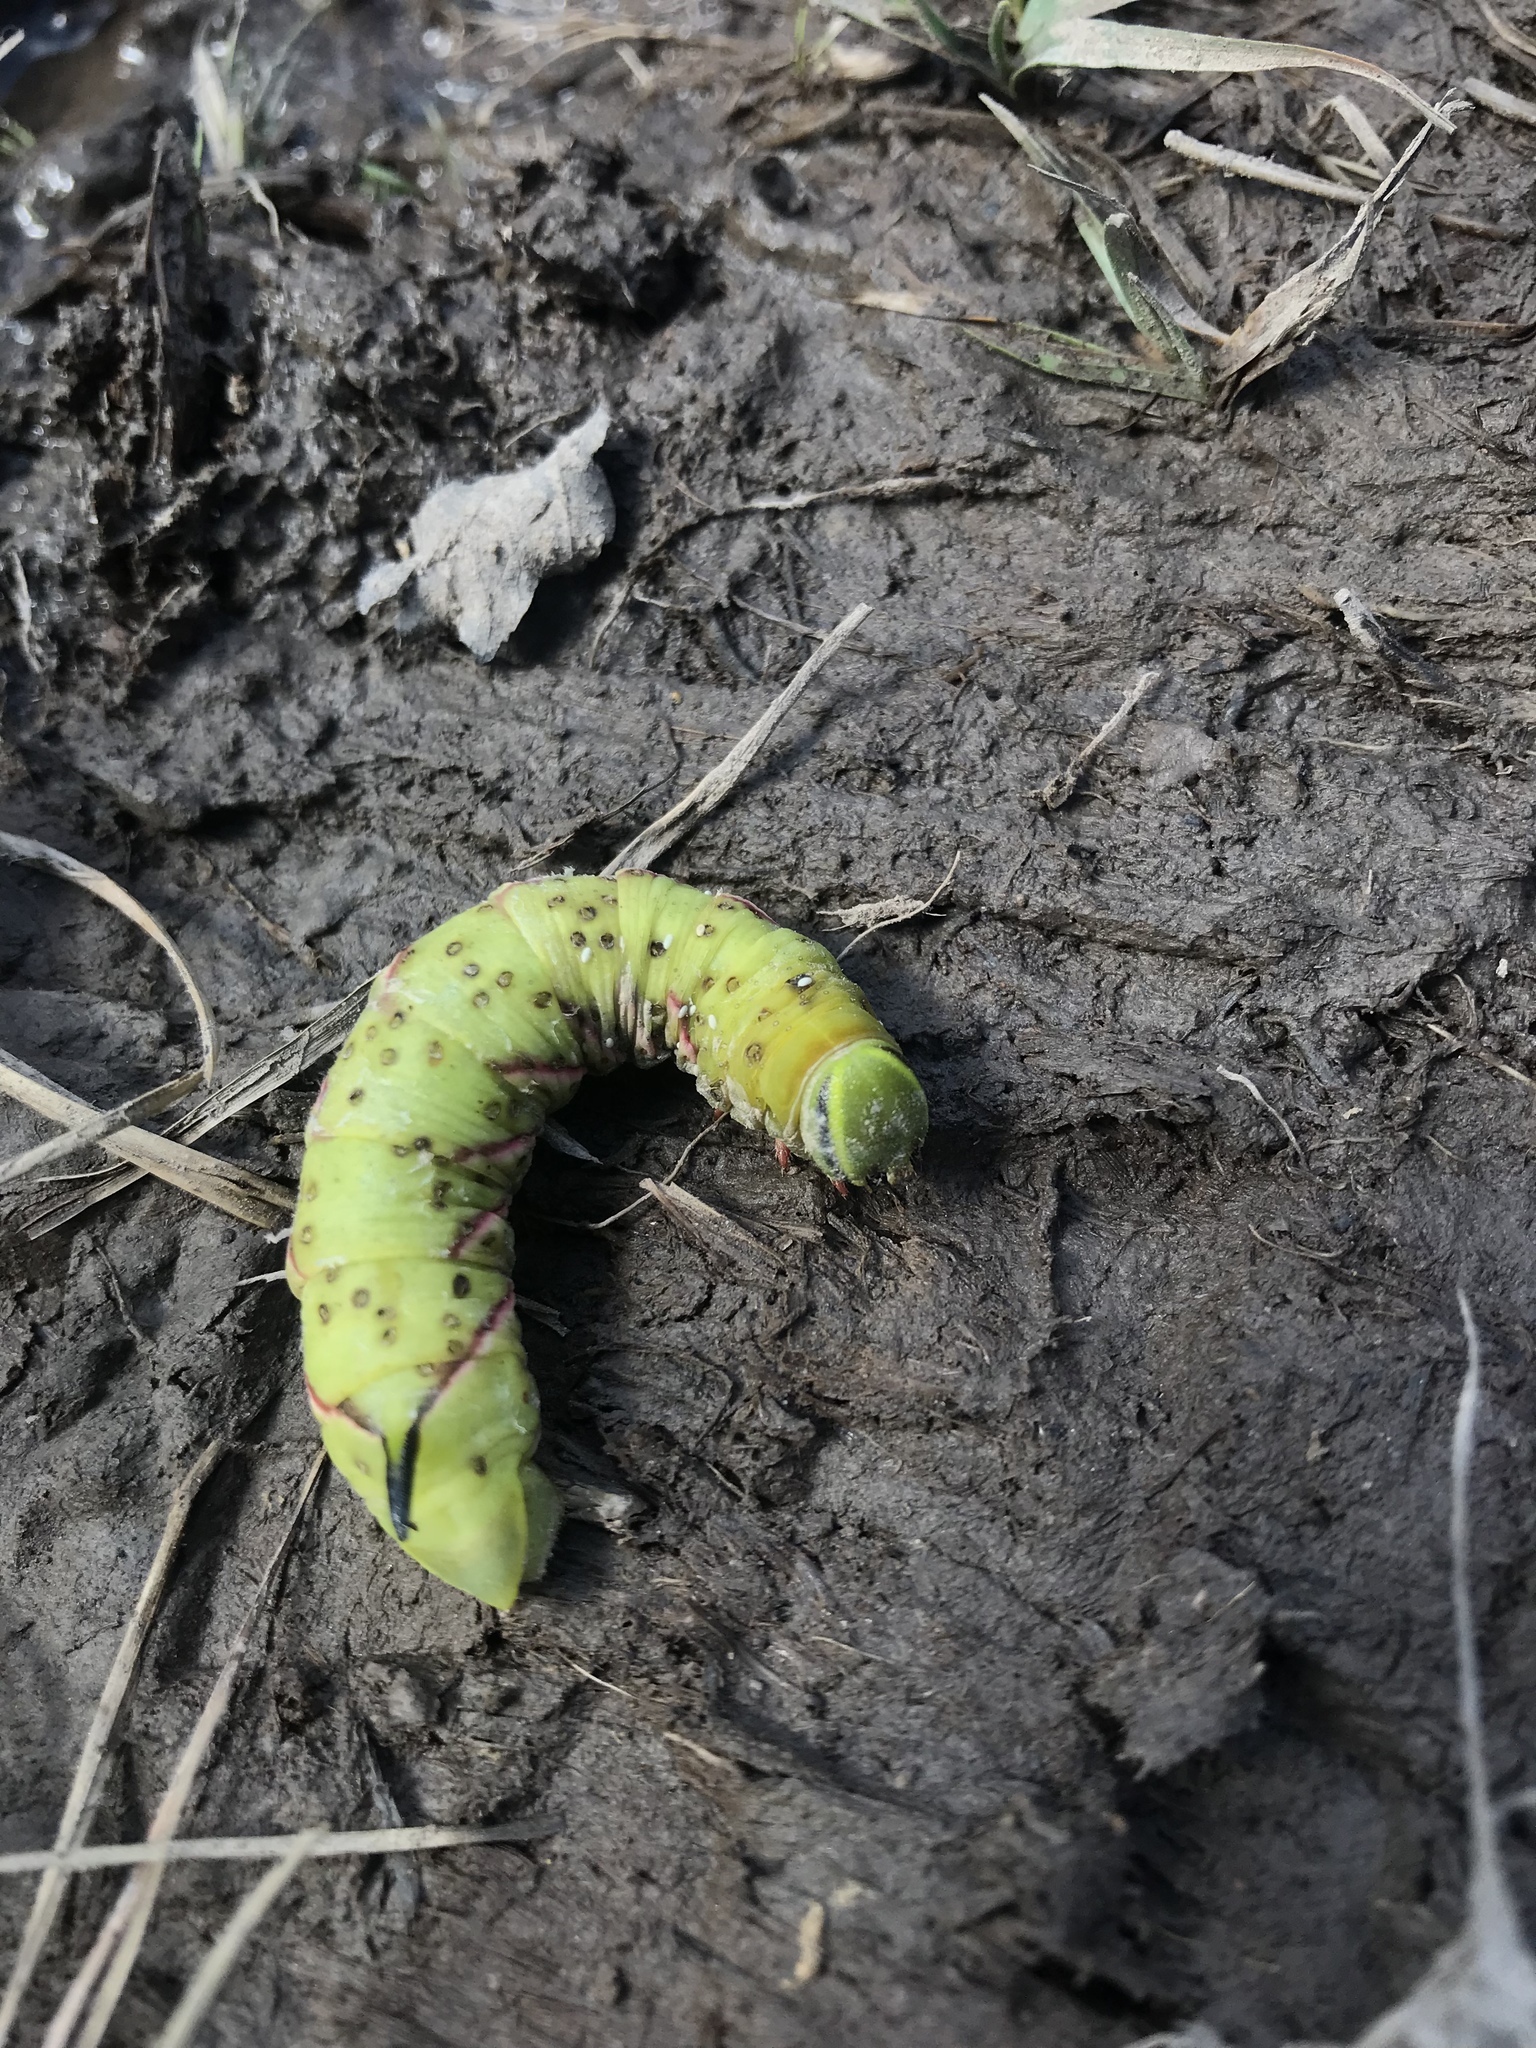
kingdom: Animalia
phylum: Arthropoda
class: Insecta
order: Lepidoptera
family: Sphingidae
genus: Sphinx
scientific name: Sphinx poecila
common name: Northern apple sphinx
